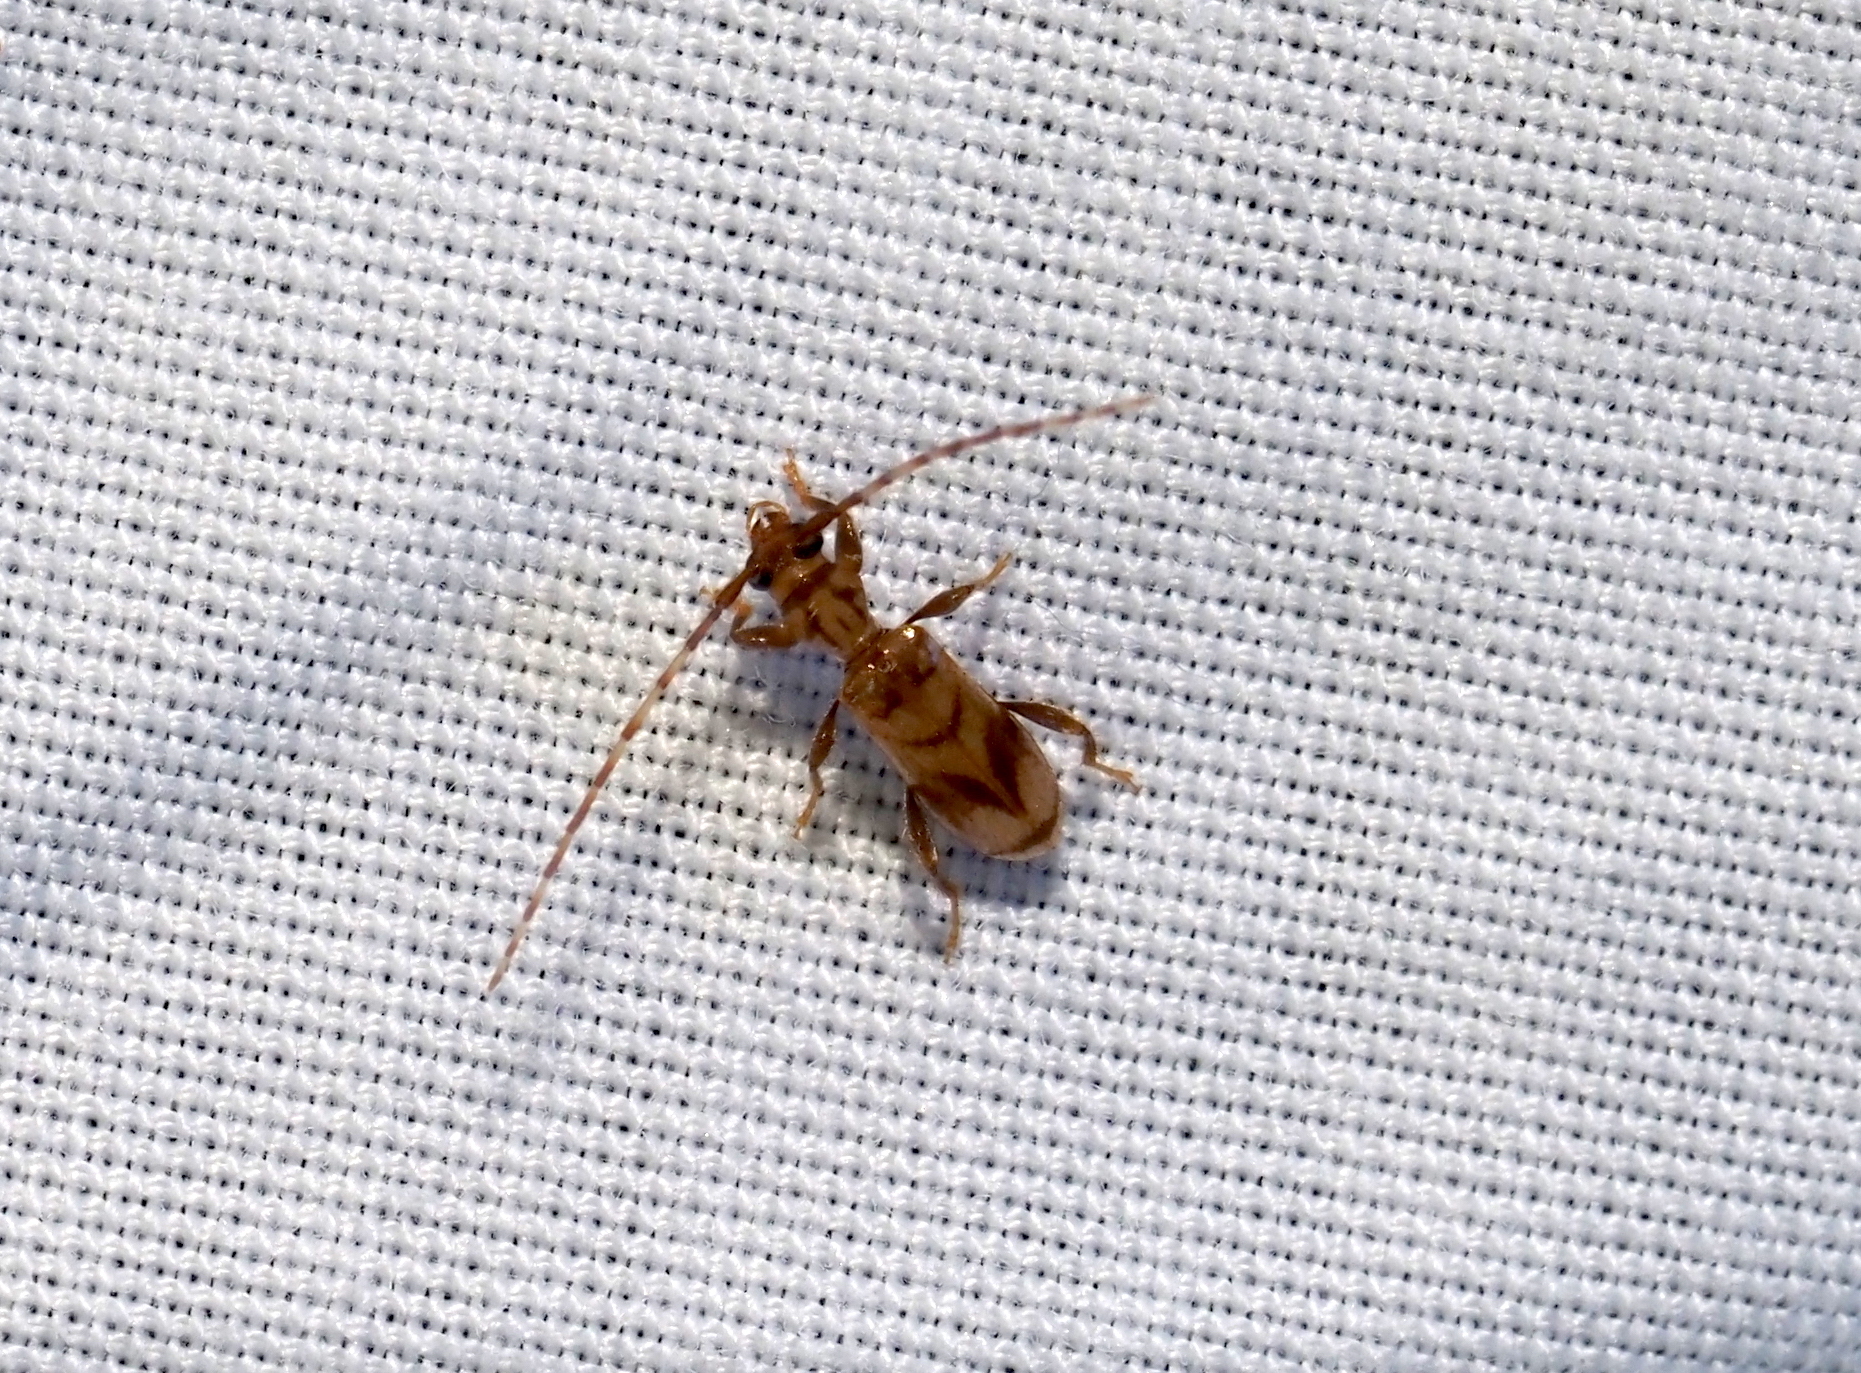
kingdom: Animalia
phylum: Arthropoda
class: Insecta
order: Coleoptera
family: Cerambycidae
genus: Obrium
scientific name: Obrium maculatum
